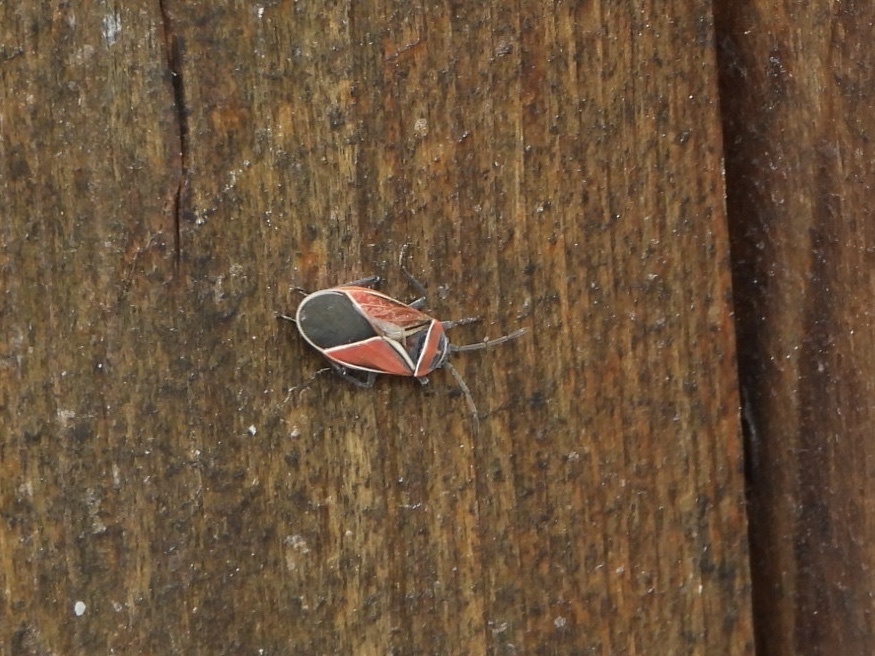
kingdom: Animalia
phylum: Arthropoda
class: Insecta
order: Hemiptera
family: Lygaeidae
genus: Neacoryphus
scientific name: Neacoryphus bicrucis
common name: Lygaeid bug
